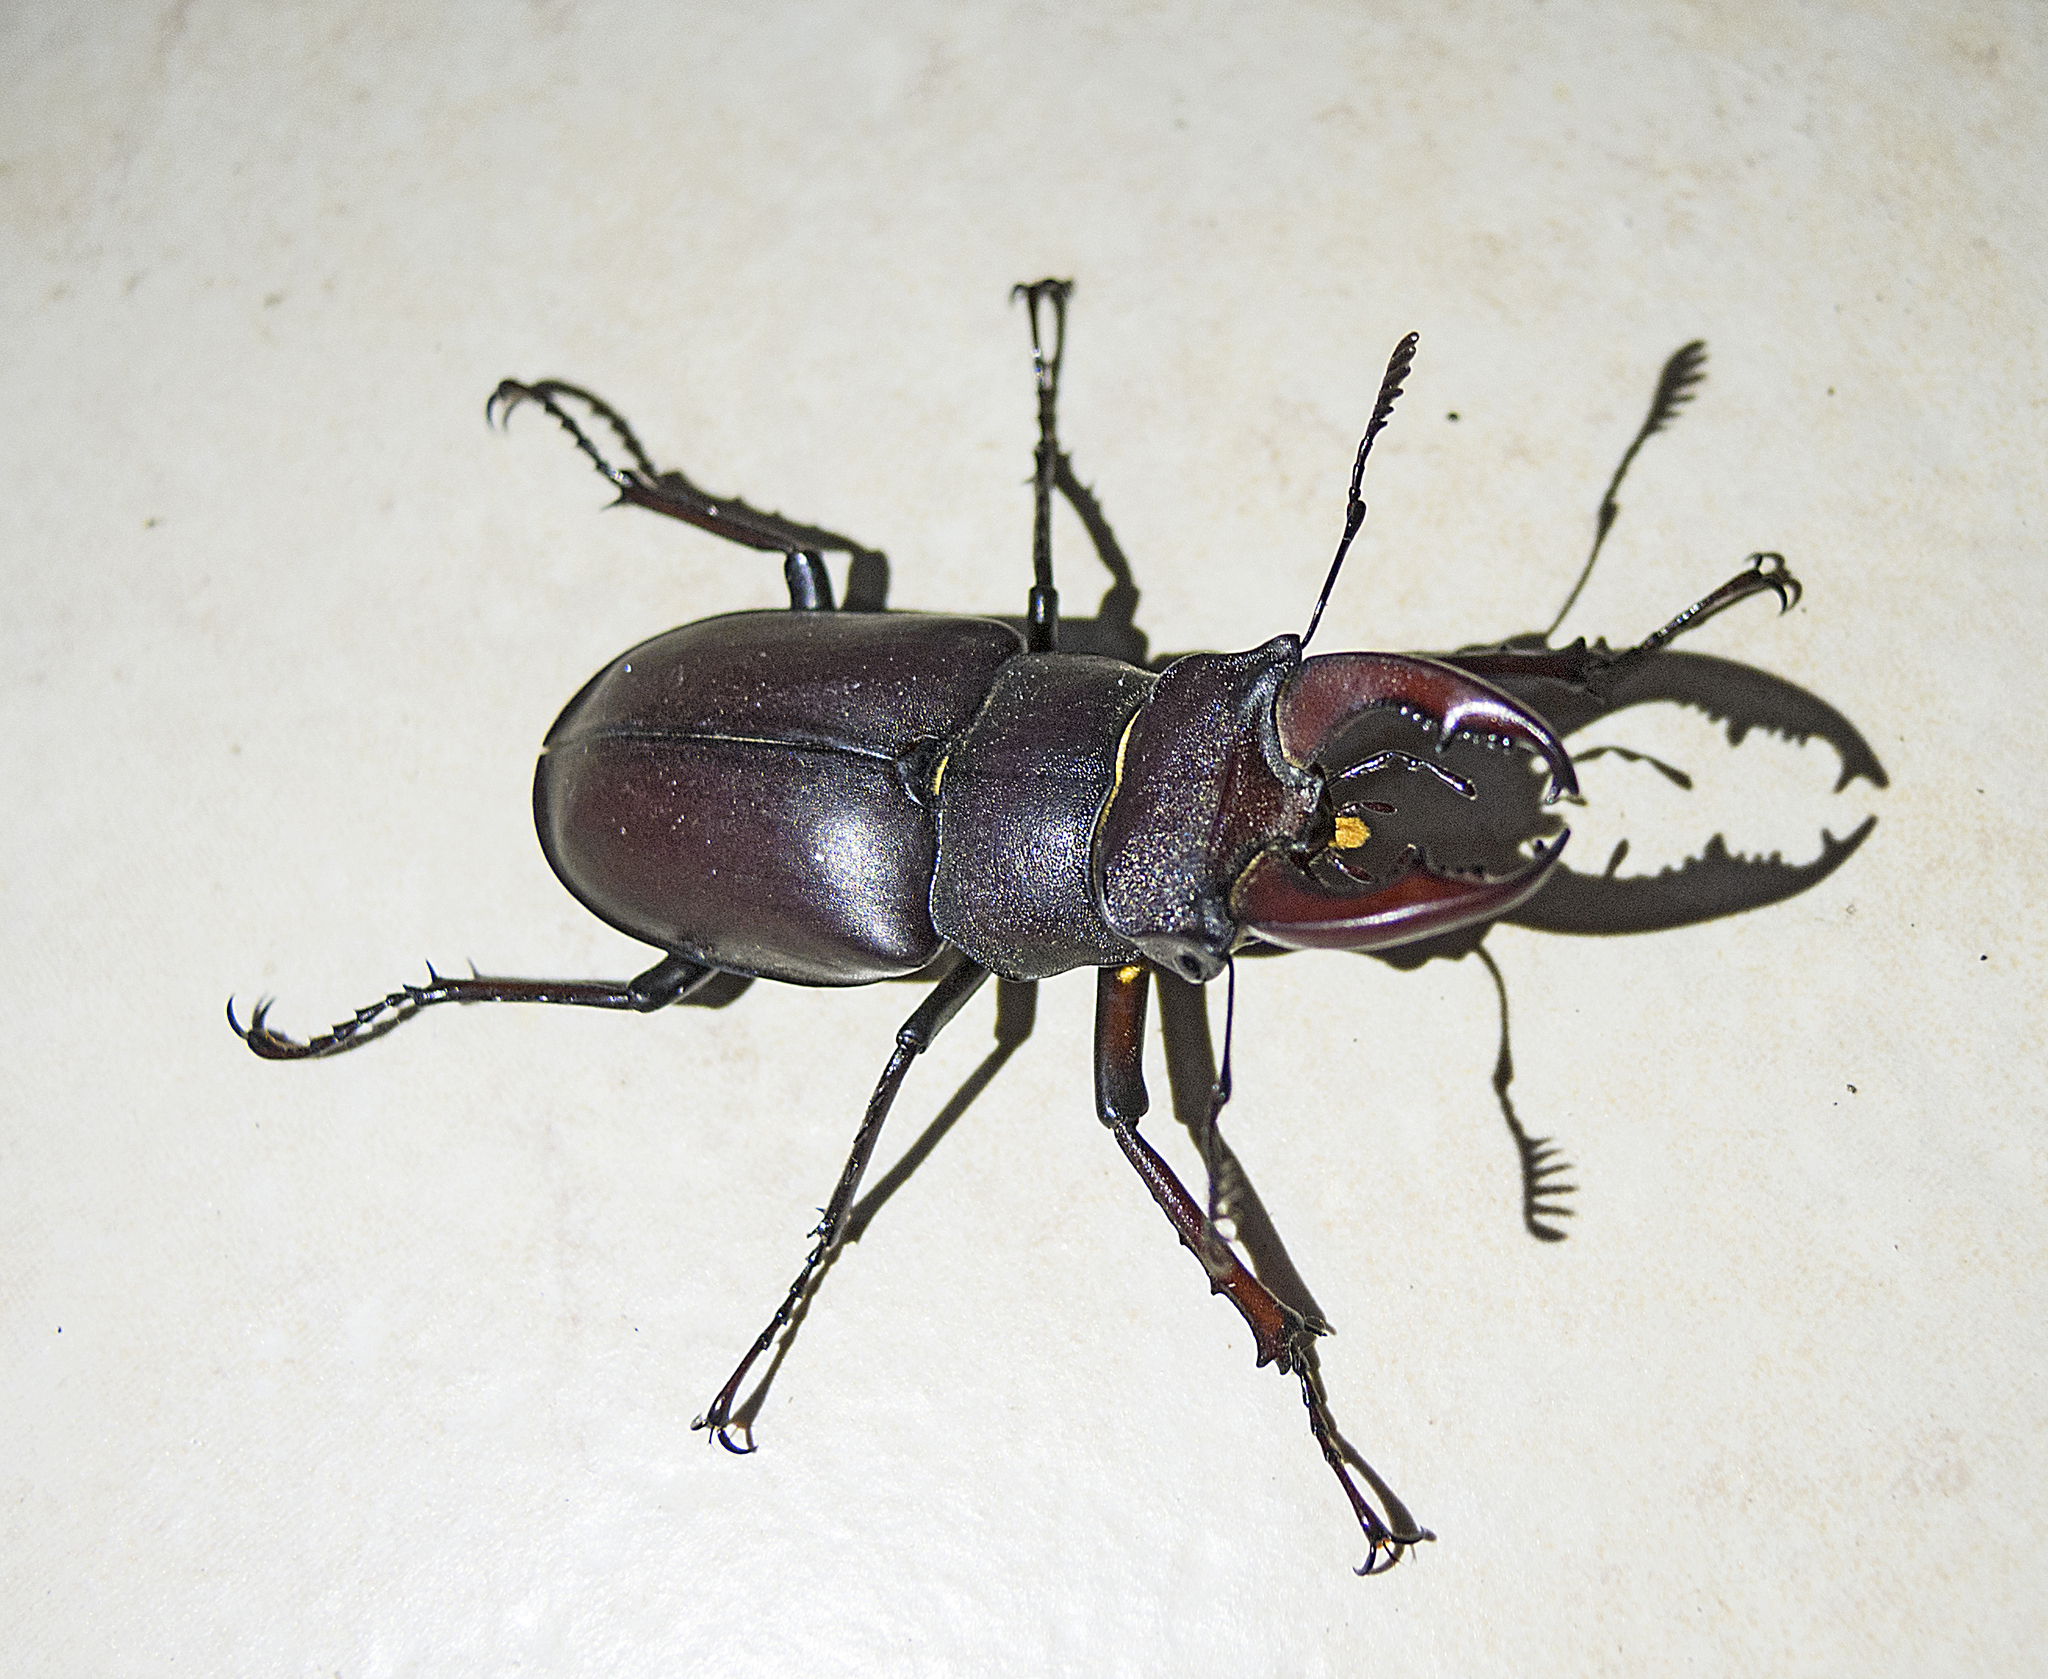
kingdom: Animalia
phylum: Arthropoda
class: Insecta
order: Coleoptera
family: Lucanidae
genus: Lucanus
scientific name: Lucanus cervus
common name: Stag beetle
